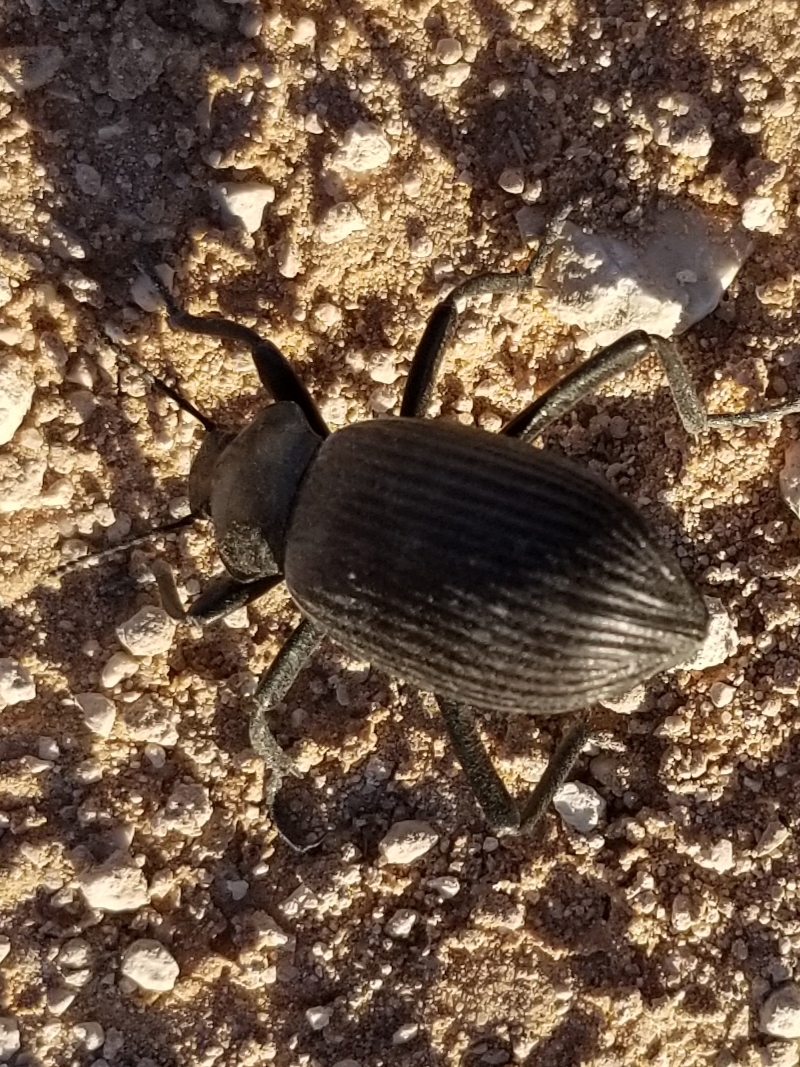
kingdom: Animalia
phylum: Arthropoda
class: Insecta
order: Coleoptera
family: Tenebrionidae
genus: Eleodes
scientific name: Eleodes obscura
